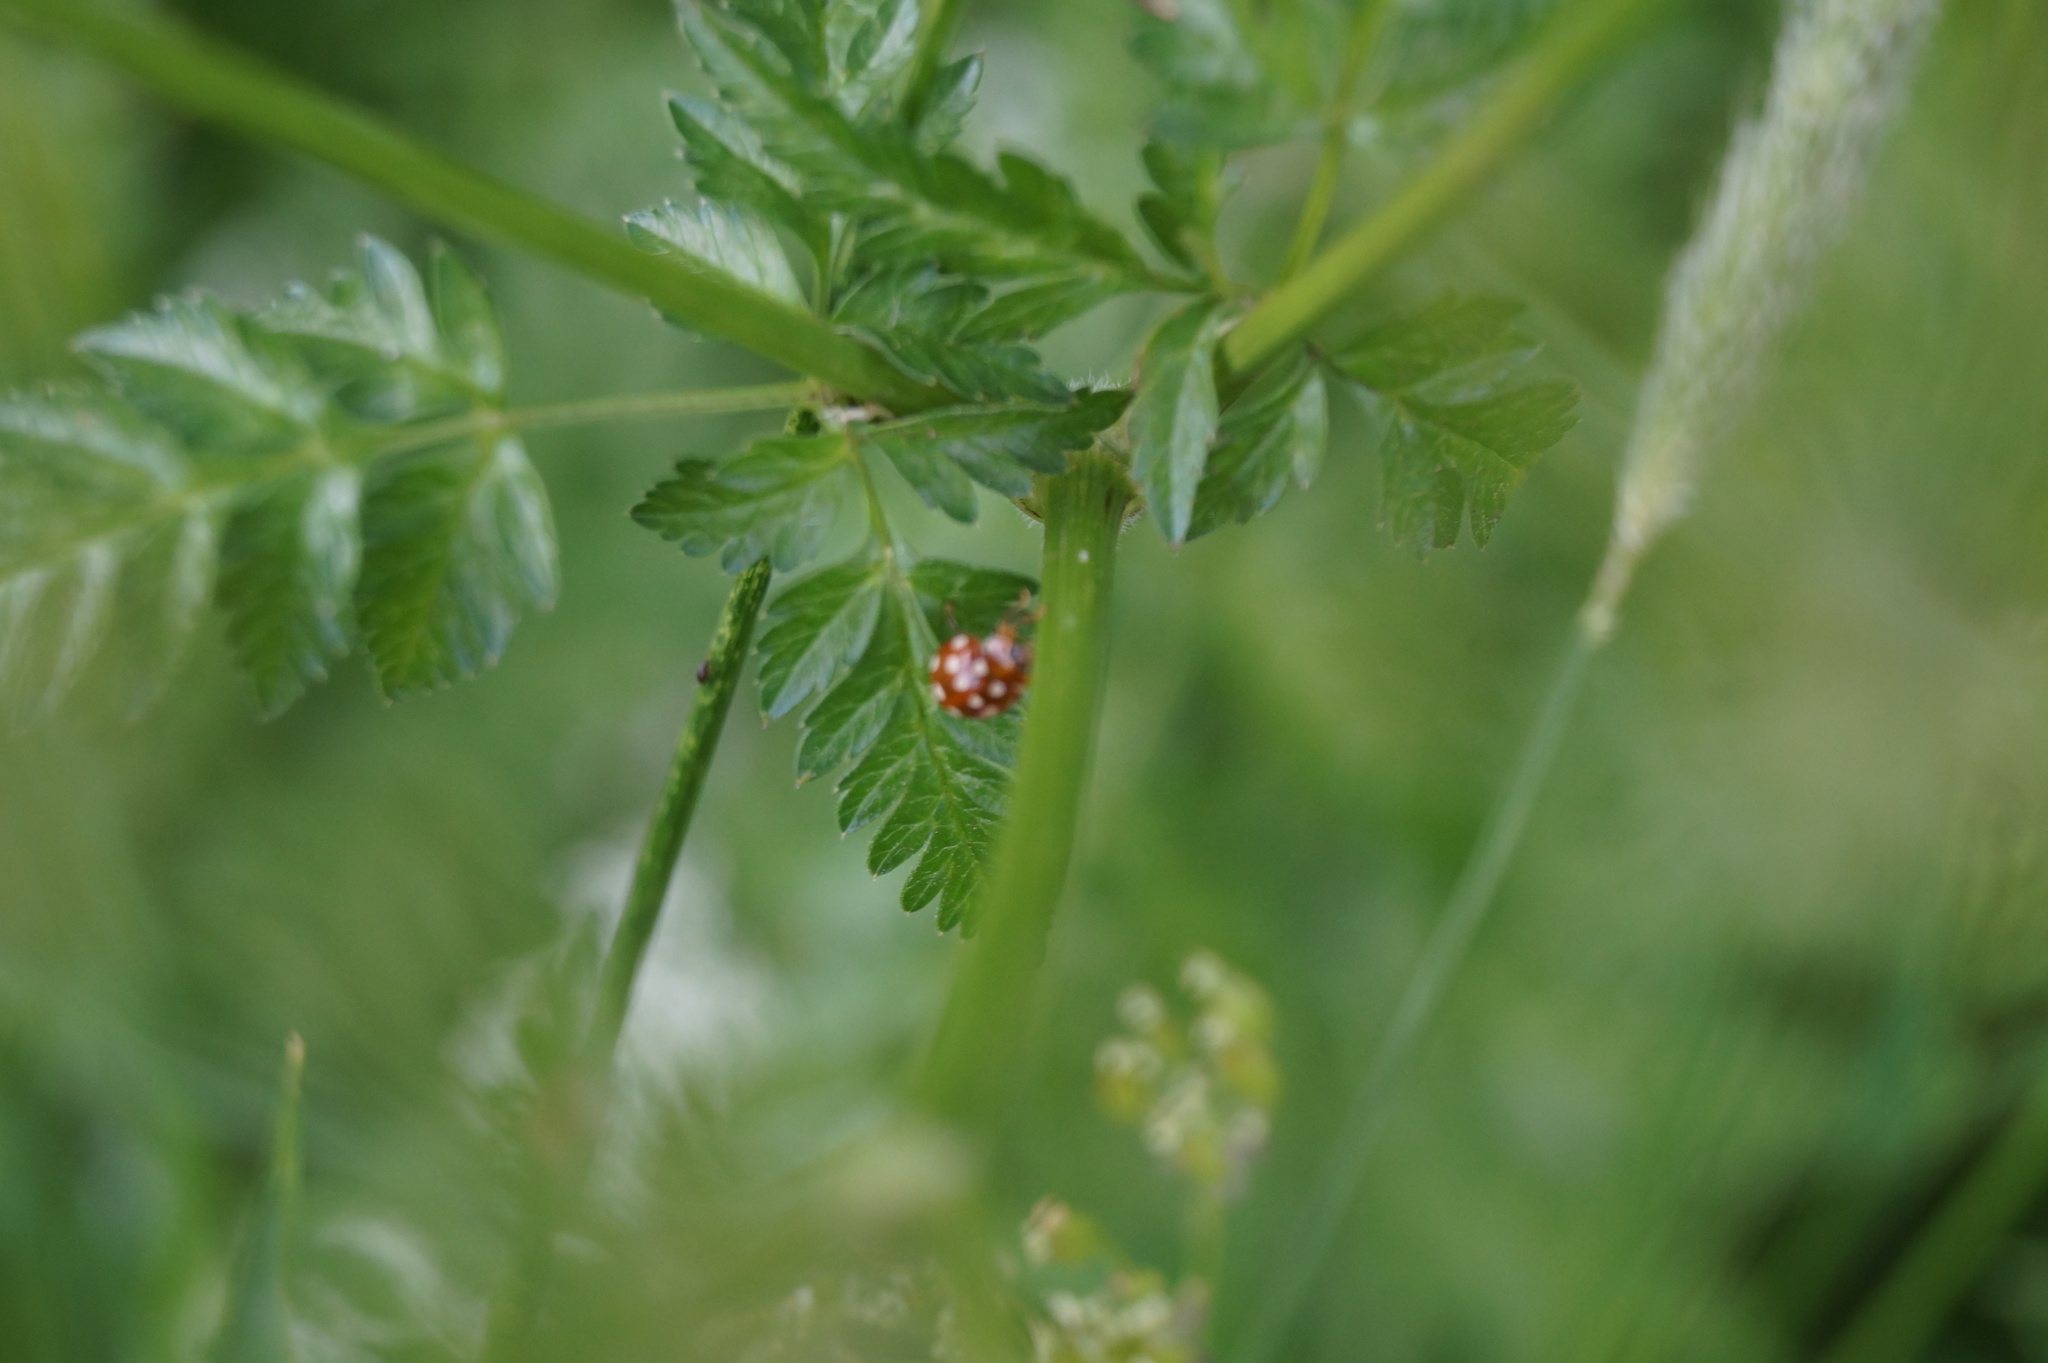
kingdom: Animalia
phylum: Arthropoda
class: Insecta
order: Coleoptera
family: Coccinellidae
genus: Calvia
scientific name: Calvia quatuordecimguttata
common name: Cream-spot ladybird
